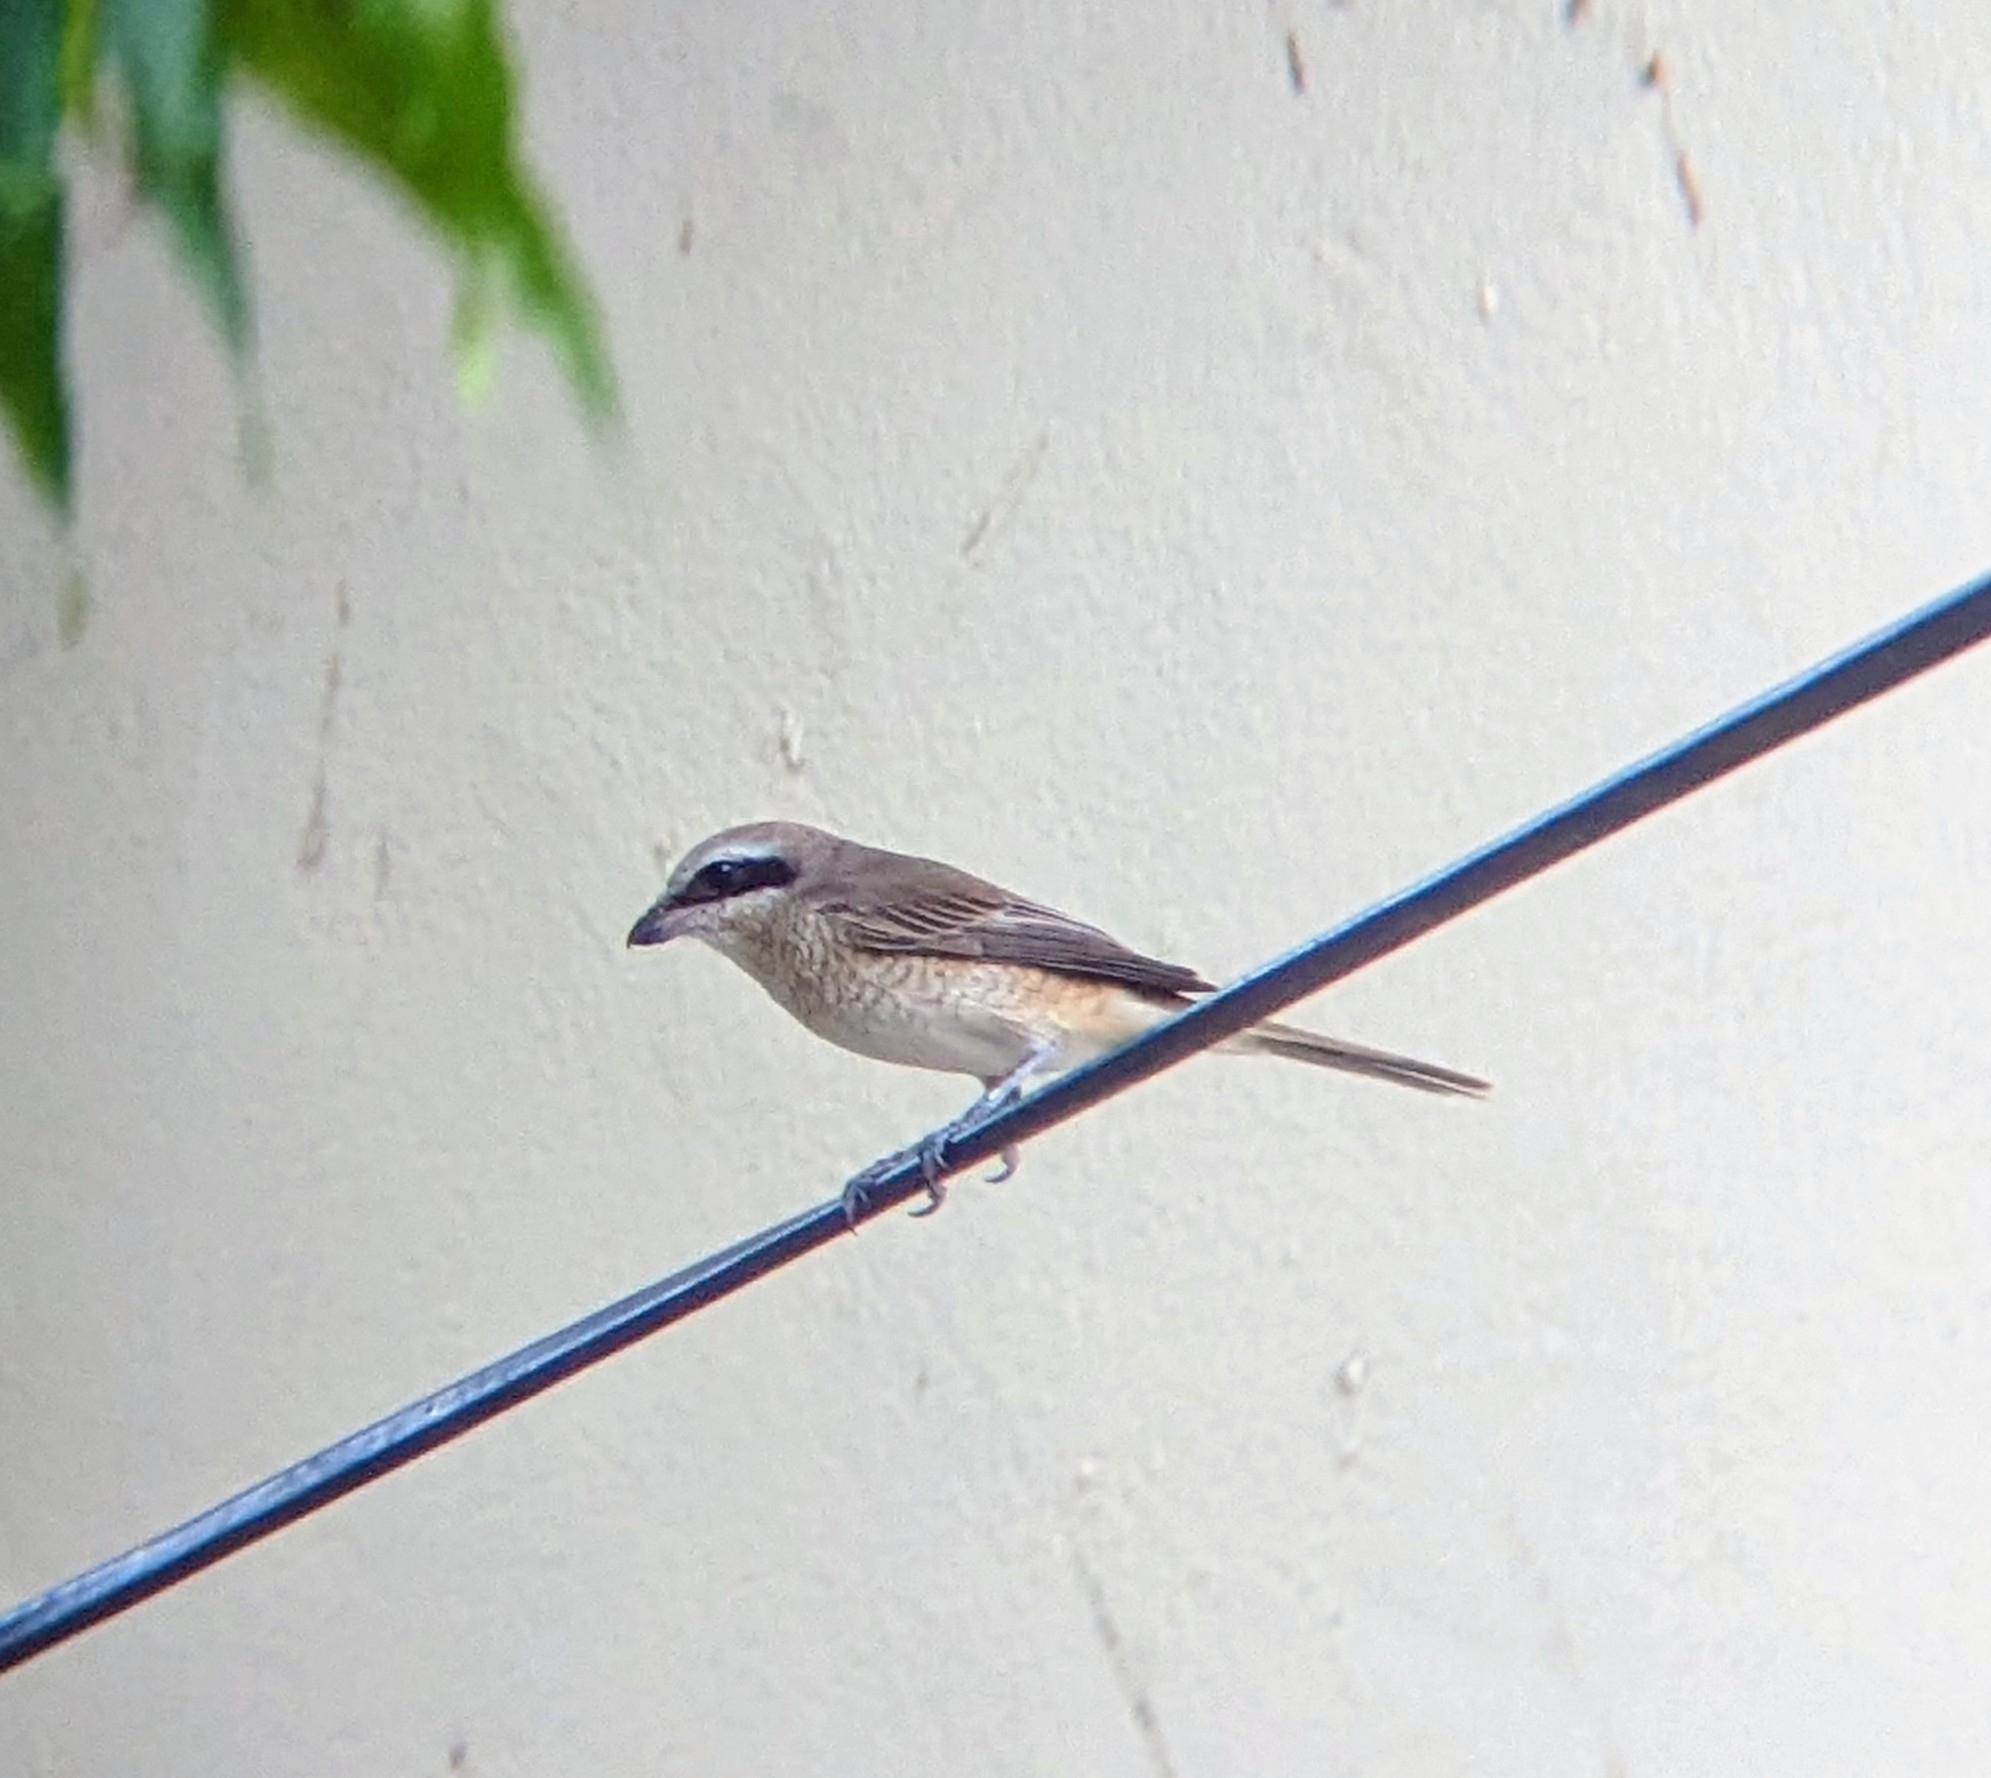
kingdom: Animalia
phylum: Chordata
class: Aves
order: Passeriformes
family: Laniidae
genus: Lanius
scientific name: Lanius cristatus
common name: Brown shrike
